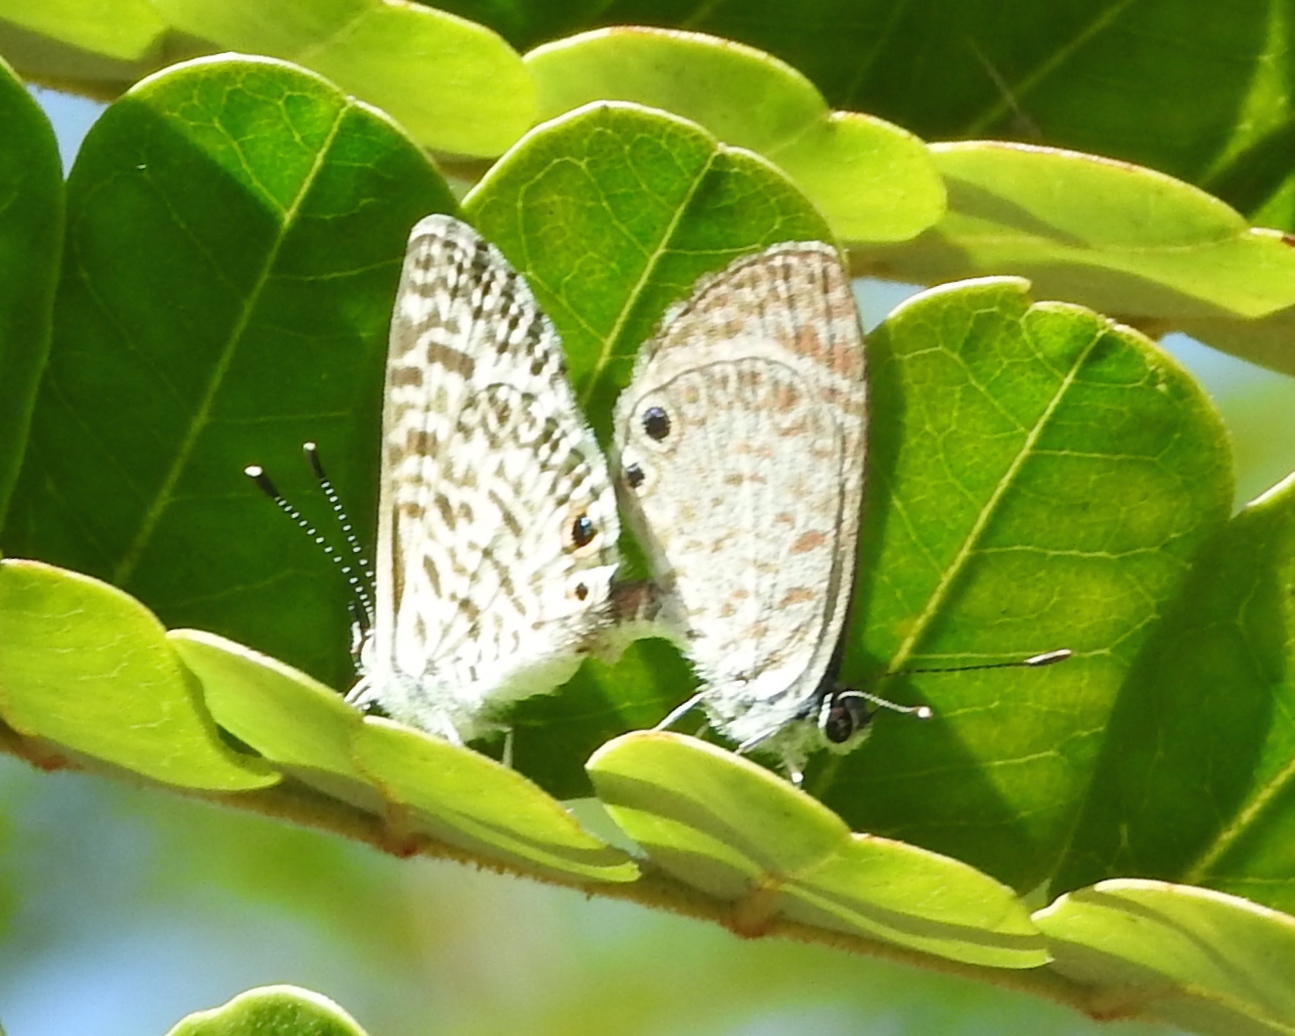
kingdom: Animalia
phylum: Arthropoda
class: Insecta
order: Lepidoptera
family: Lycaenidae
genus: Leptotes
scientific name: Leptotes theonus
